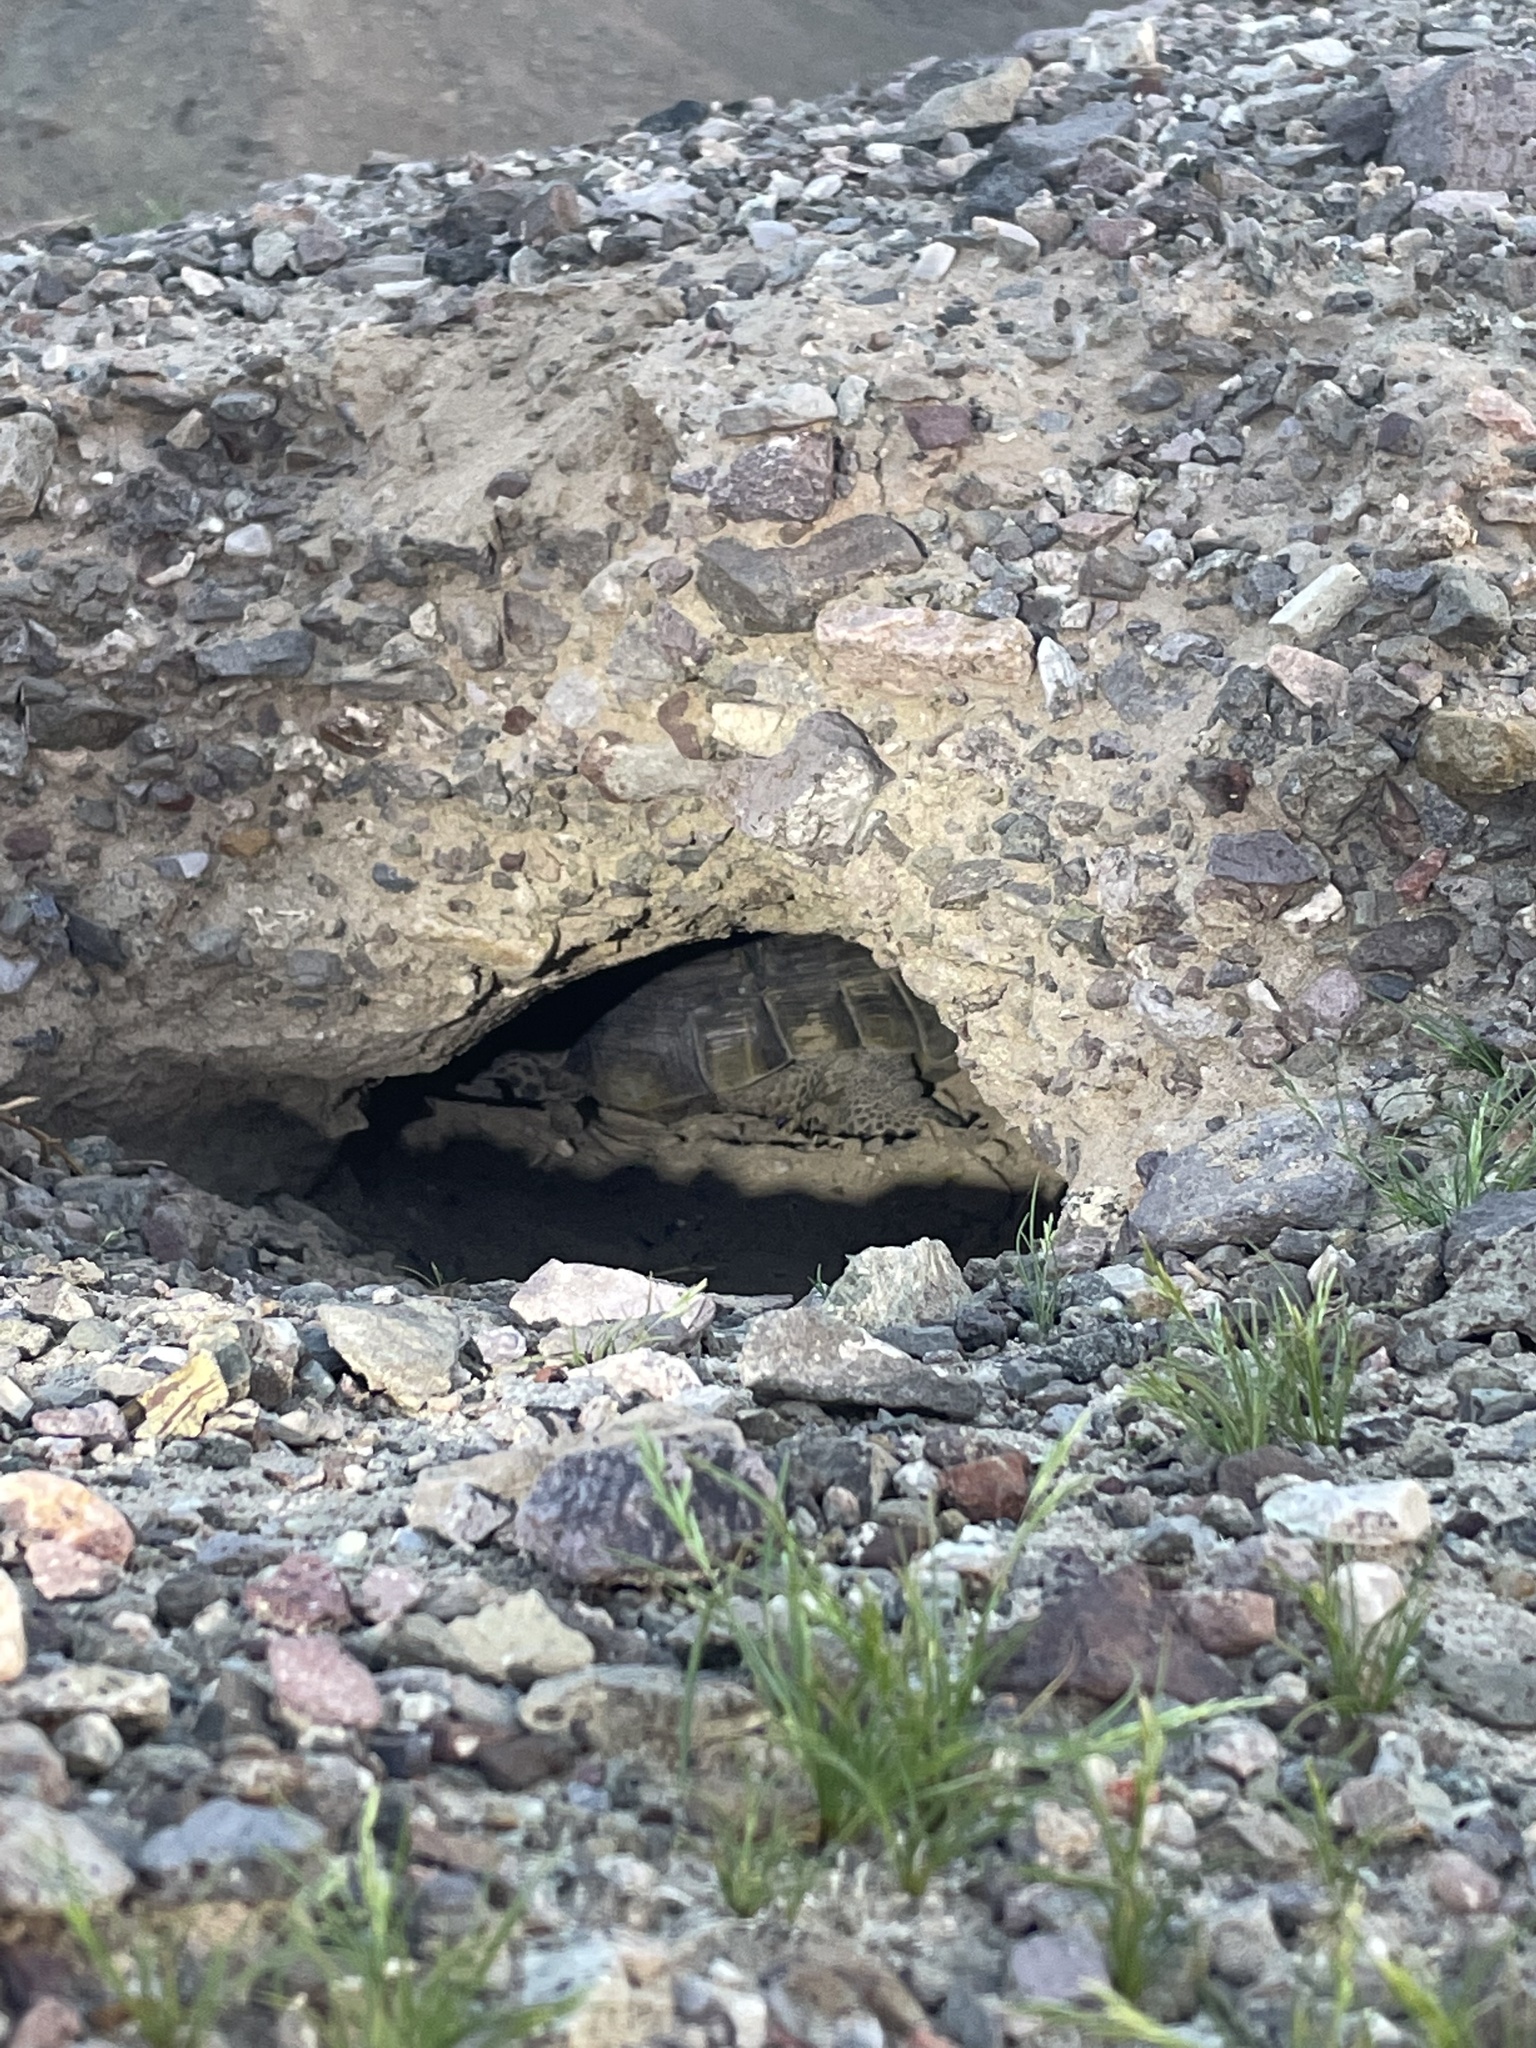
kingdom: Animalia
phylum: Chordata
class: Testudines
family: Testudinidae
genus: Gopherus
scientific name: Gopherus agassizii
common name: Mojave desert tortoise
